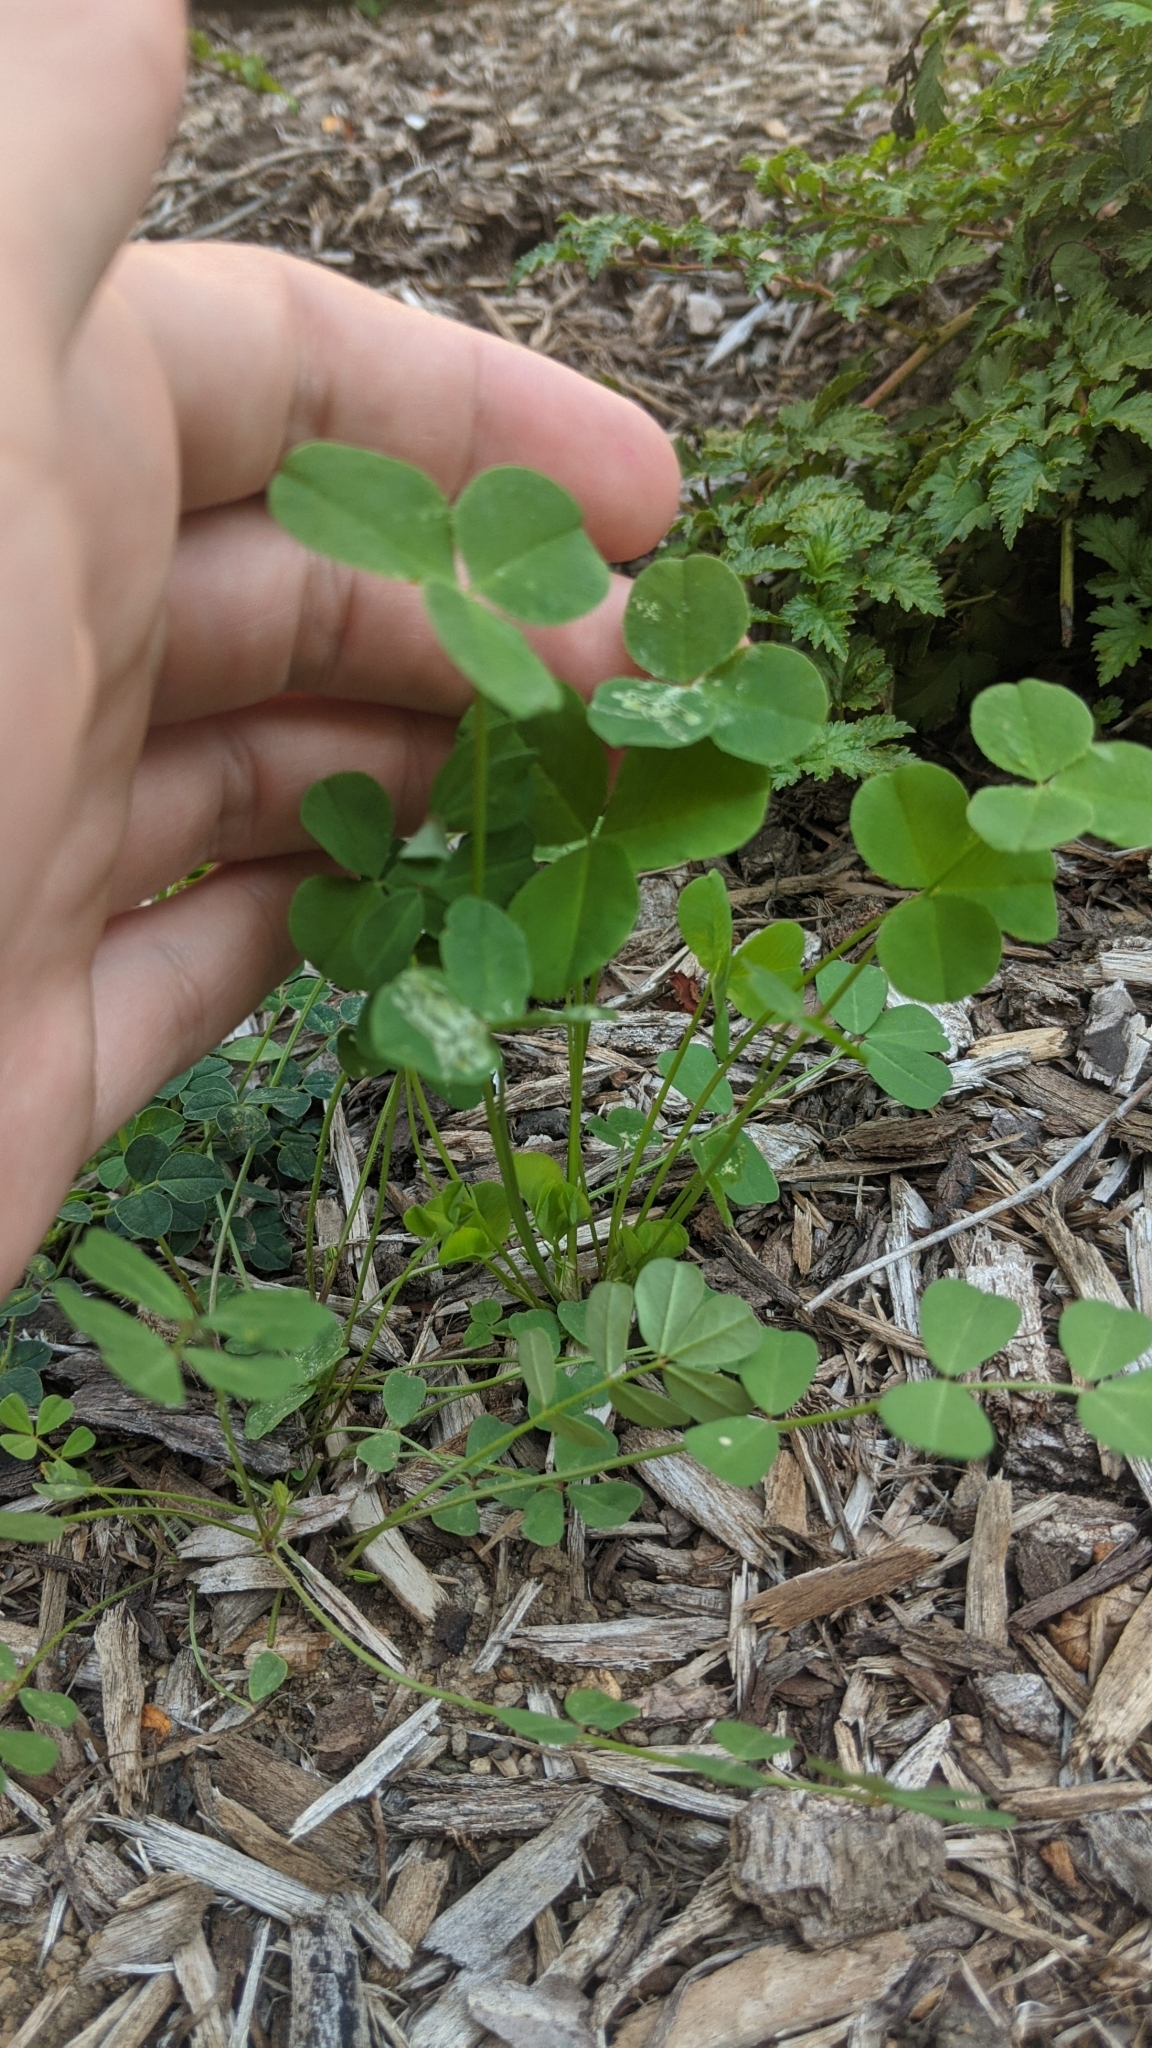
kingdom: Animalia
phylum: Arthropoda
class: Insecta
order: Diptera
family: Agromyzidae
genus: Liriomyza
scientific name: Liriomyza fricki
